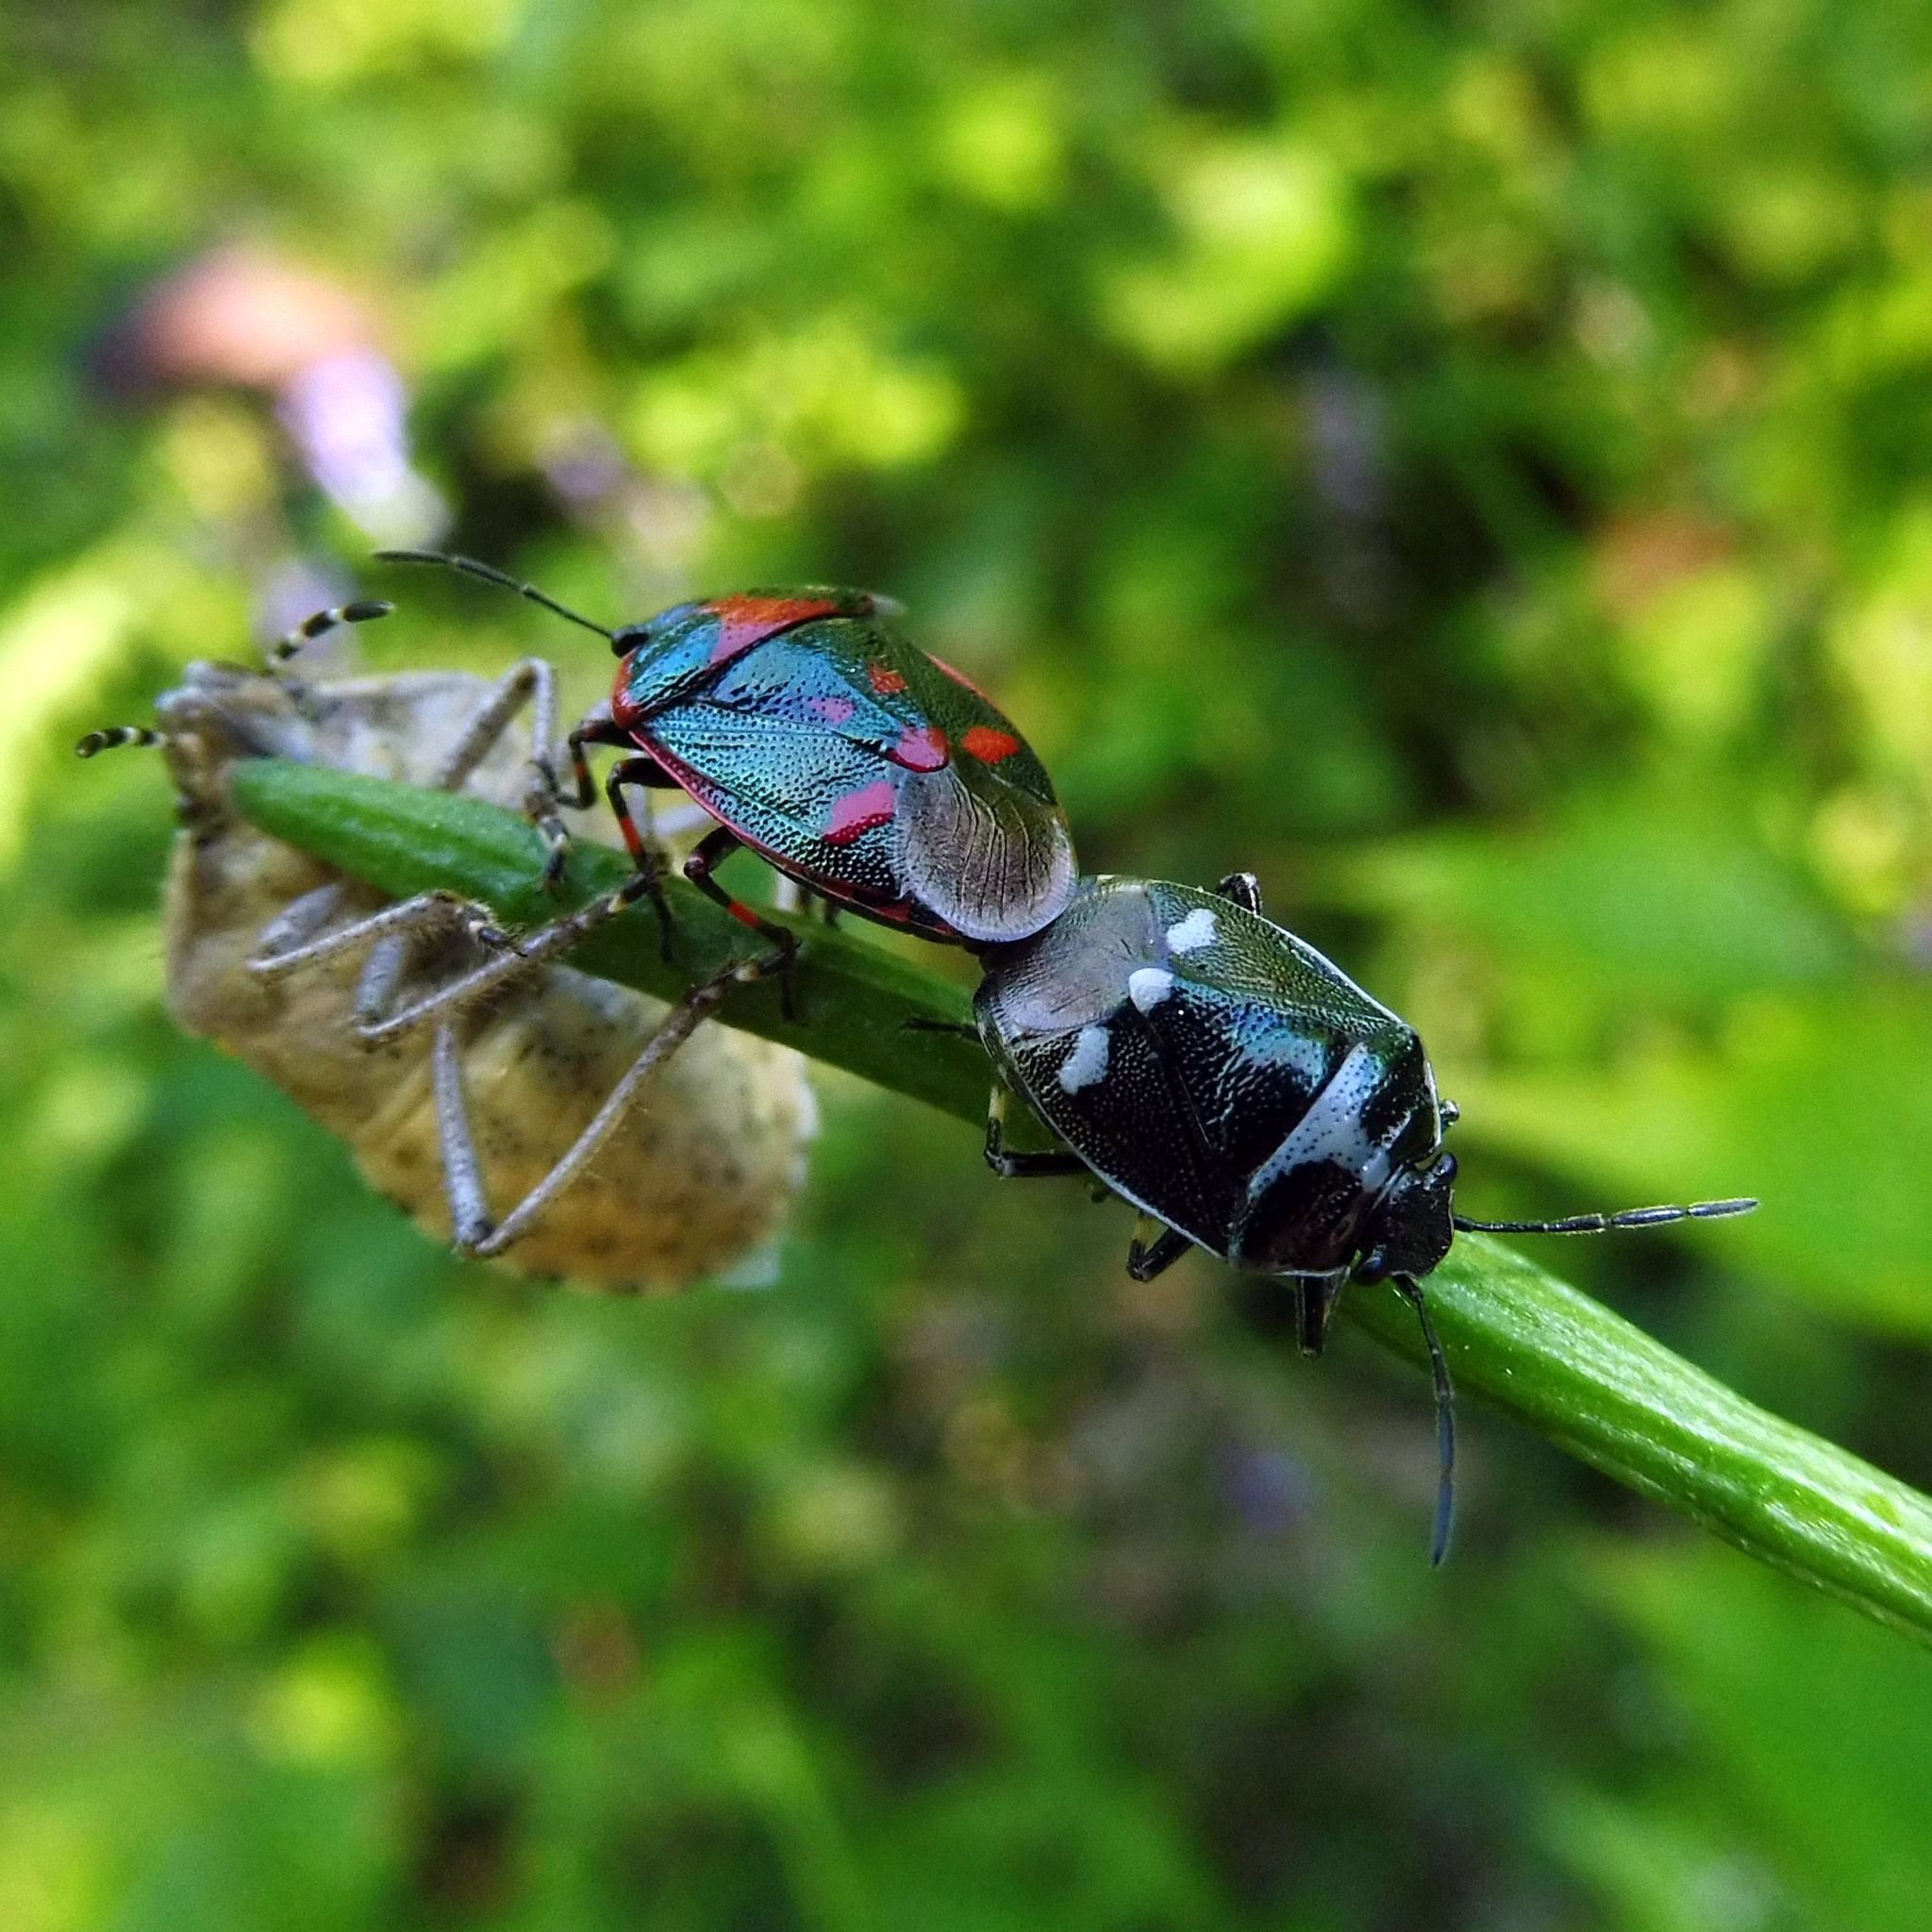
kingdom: Animalia
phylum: Arthropoda
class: Insecta
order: Hemiptera
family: Pentatomidae
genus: Eurydema
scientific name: Eurydema oleracea
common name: Cabbage bug
